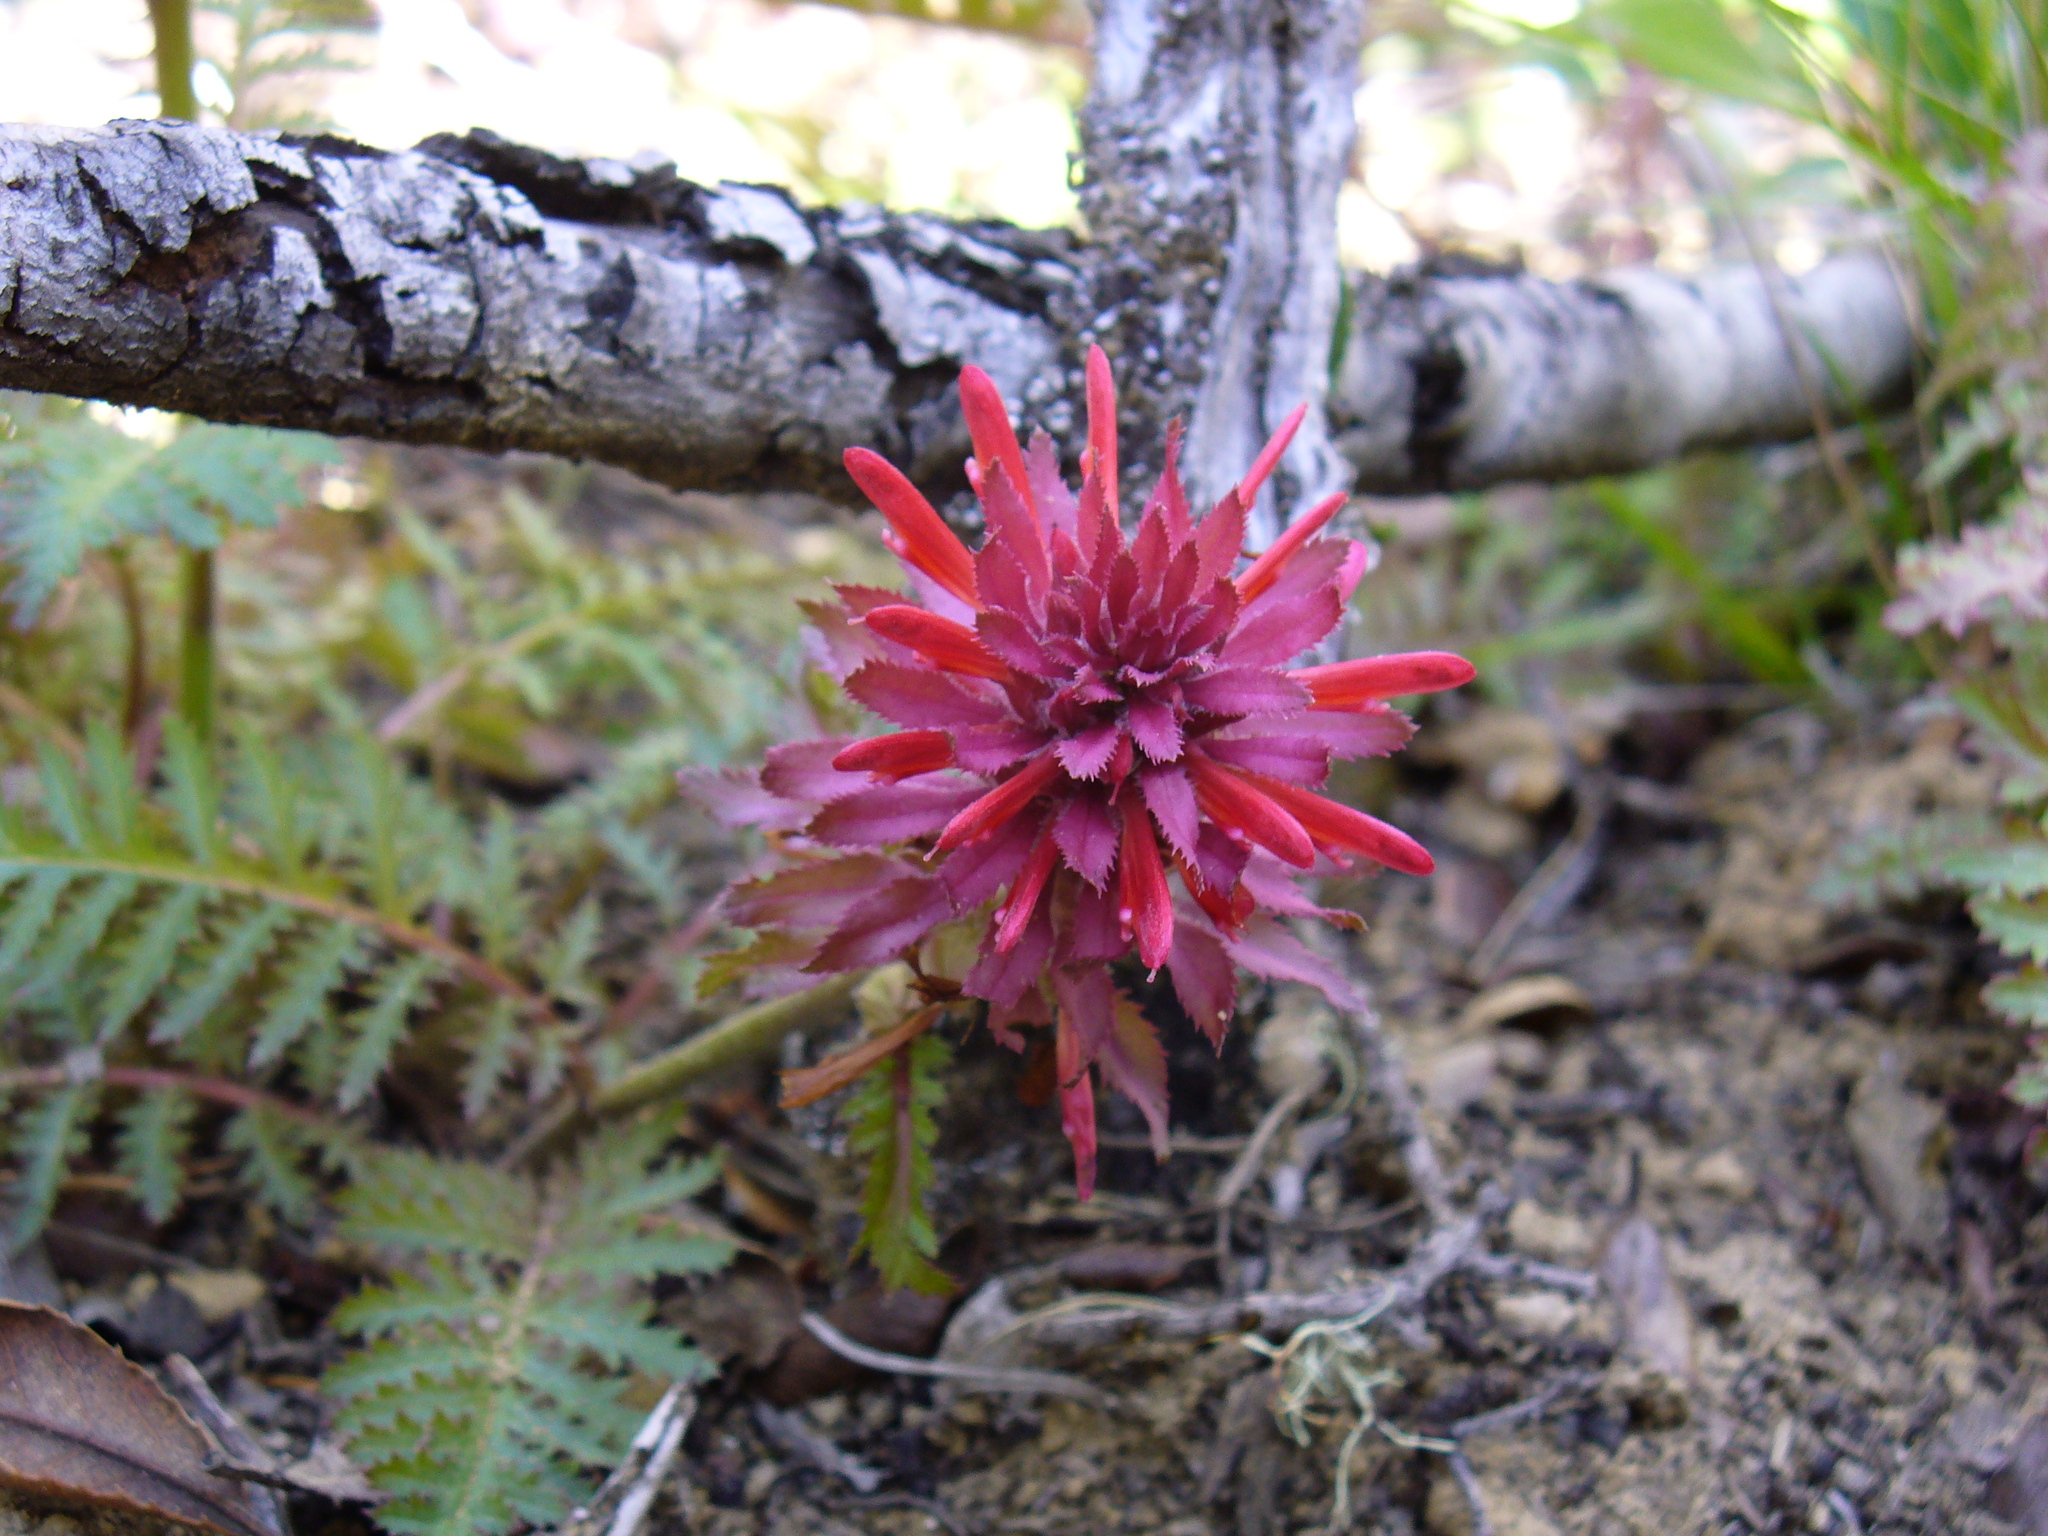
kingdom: Plantae
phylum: Tracheophyta
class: Magnoliopsida
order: Lamiales
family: Orobanchaceae
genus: Pedicularis
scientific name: Pedicularis densiflora
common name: Indian warrior
